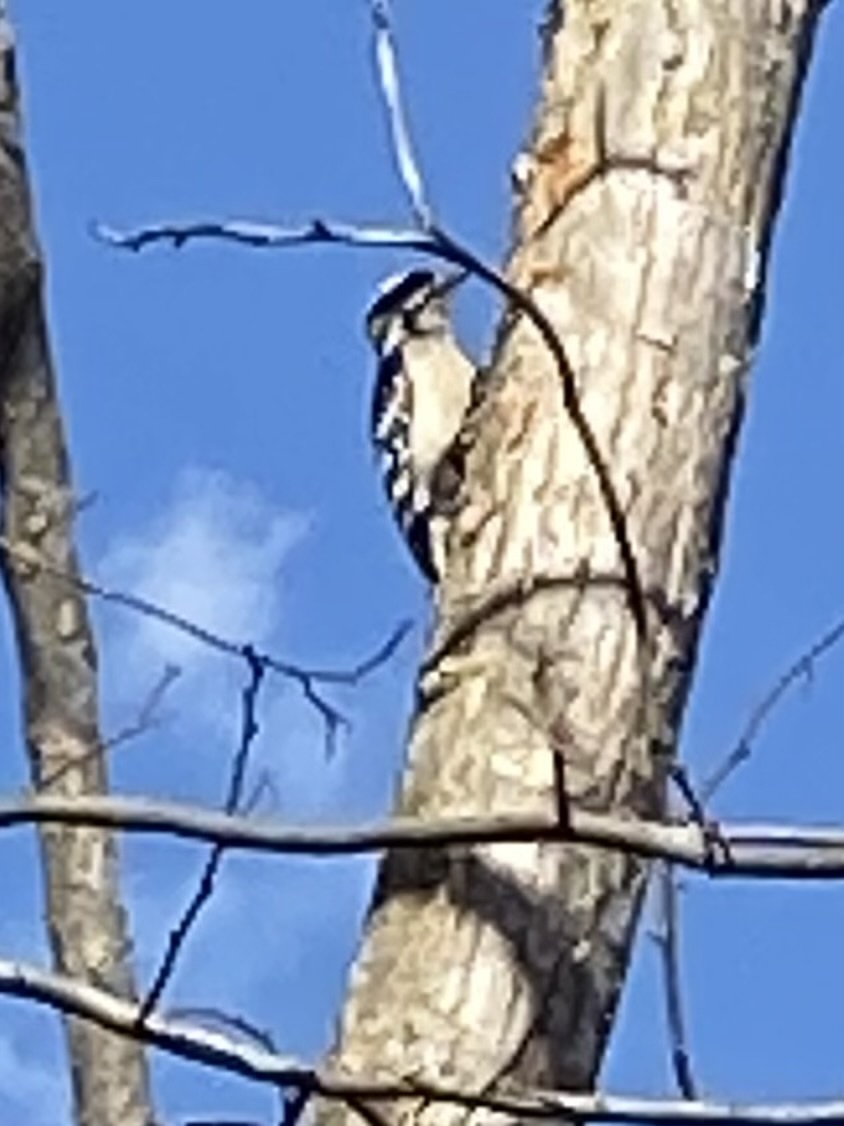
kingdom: Animalia
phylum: Chordata
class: Aves
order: Piciformes
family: Picidae
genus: Dryobates
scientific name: Dryobates pubescens
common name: Downy woodpecker
